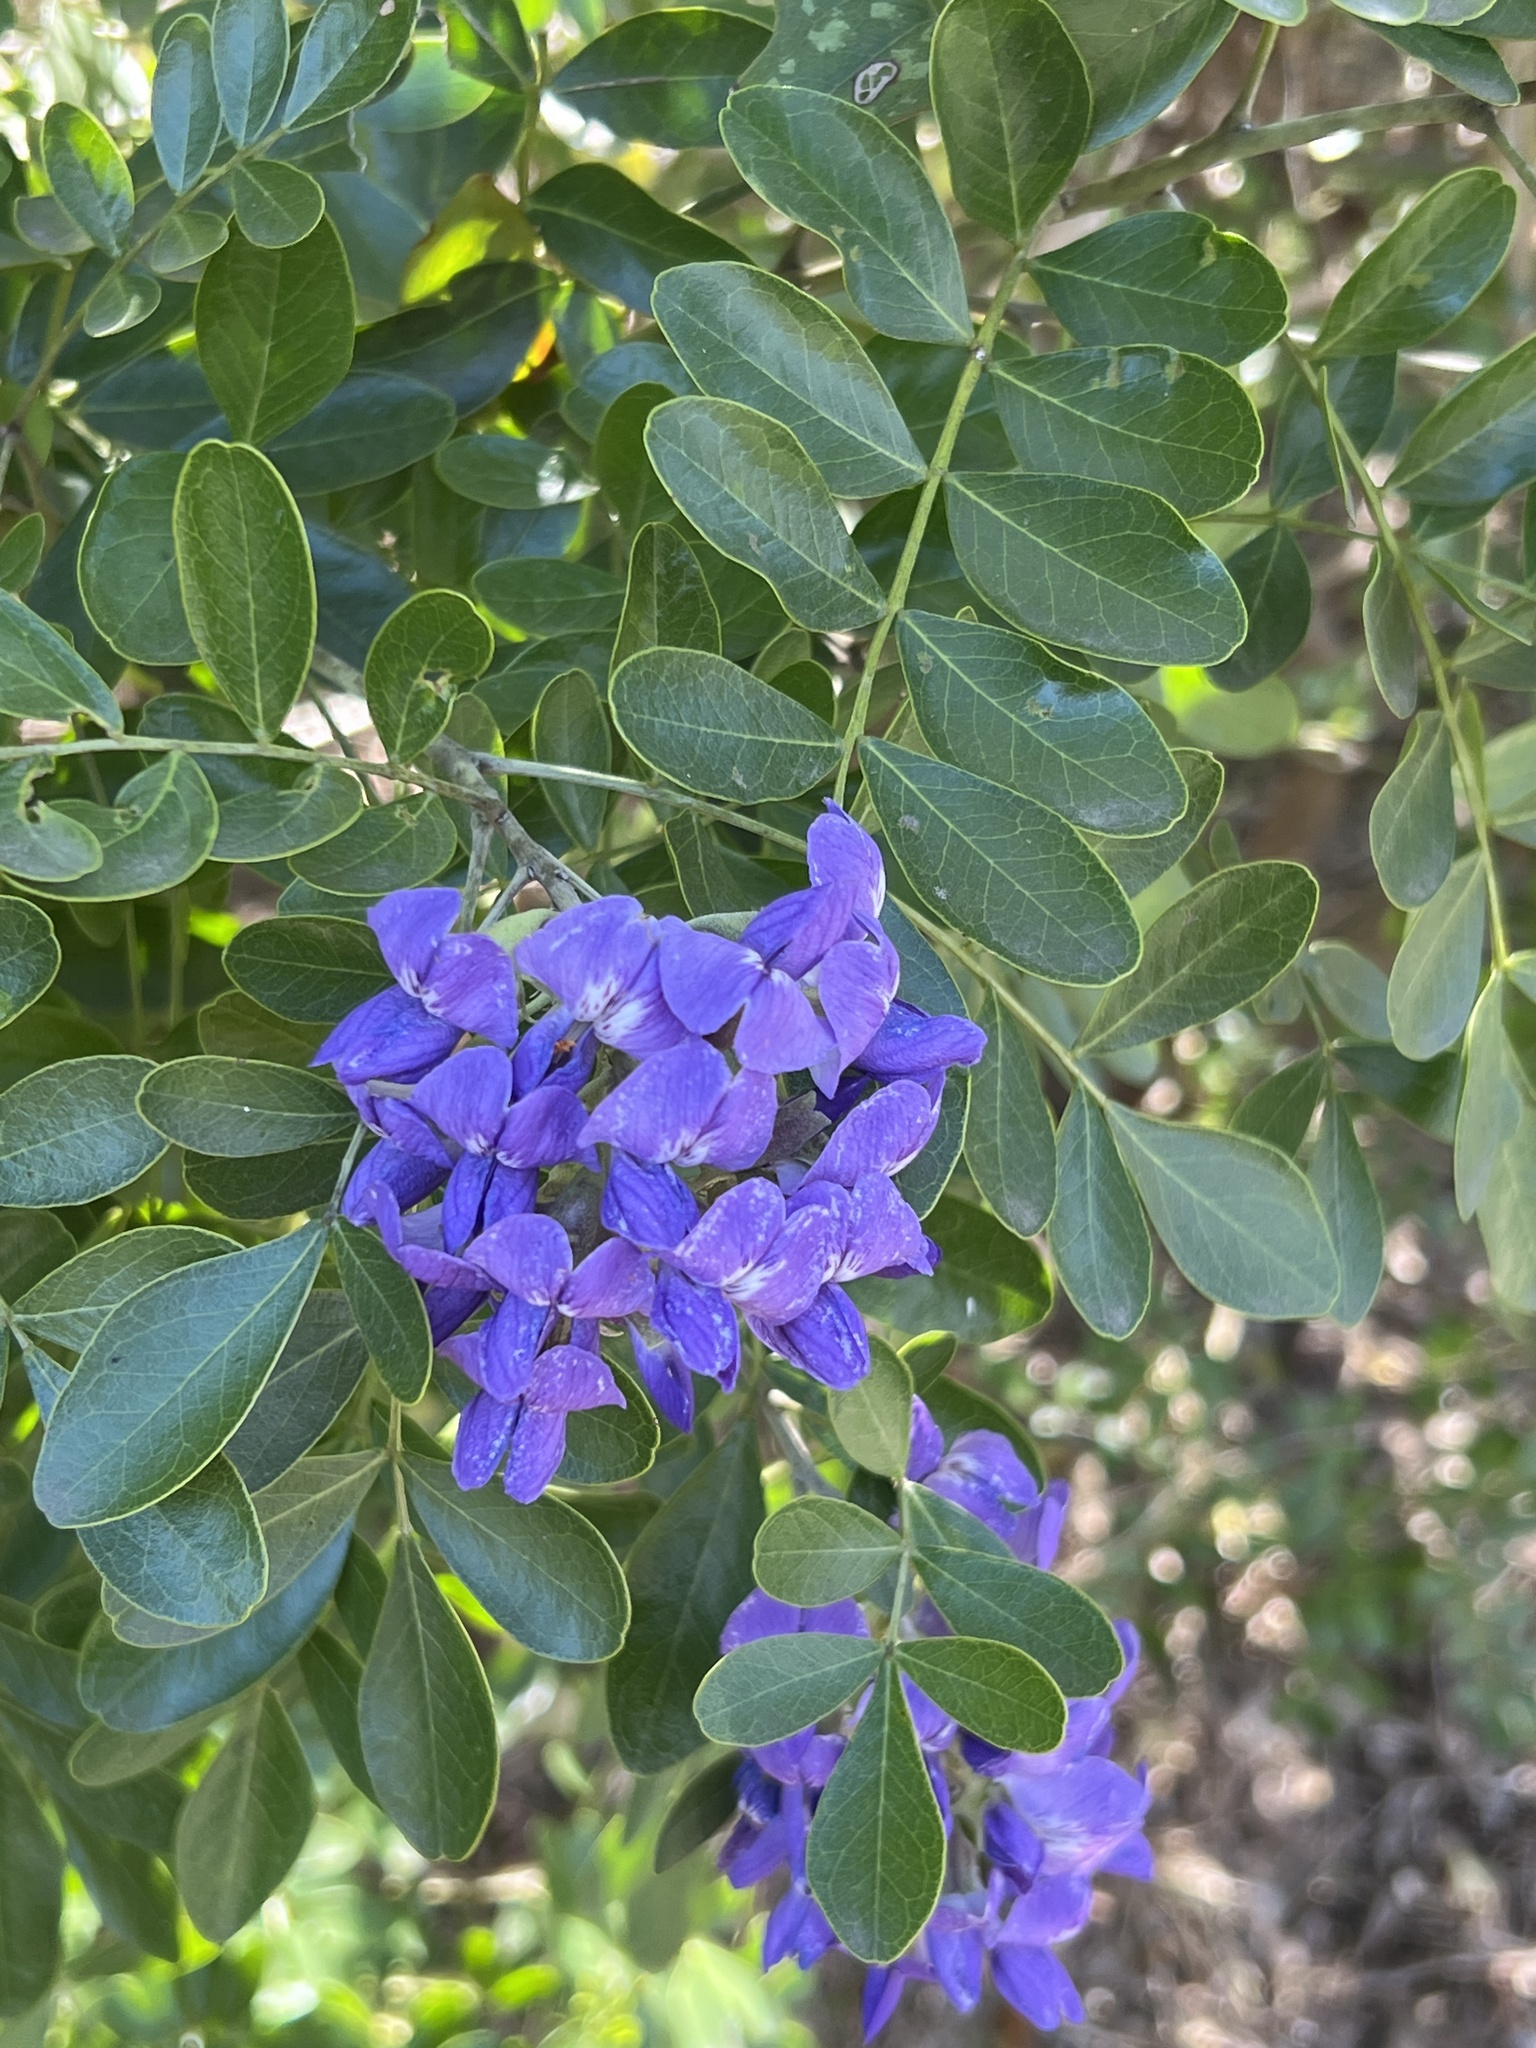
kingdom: Plantae
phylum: Tracheophyta
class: Magnoliopsida
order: Fabales
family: Fabaceae
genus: Dermatophyllum
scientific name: Dermatophyllum secundiflorum
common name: Texas-mountain-laurel
